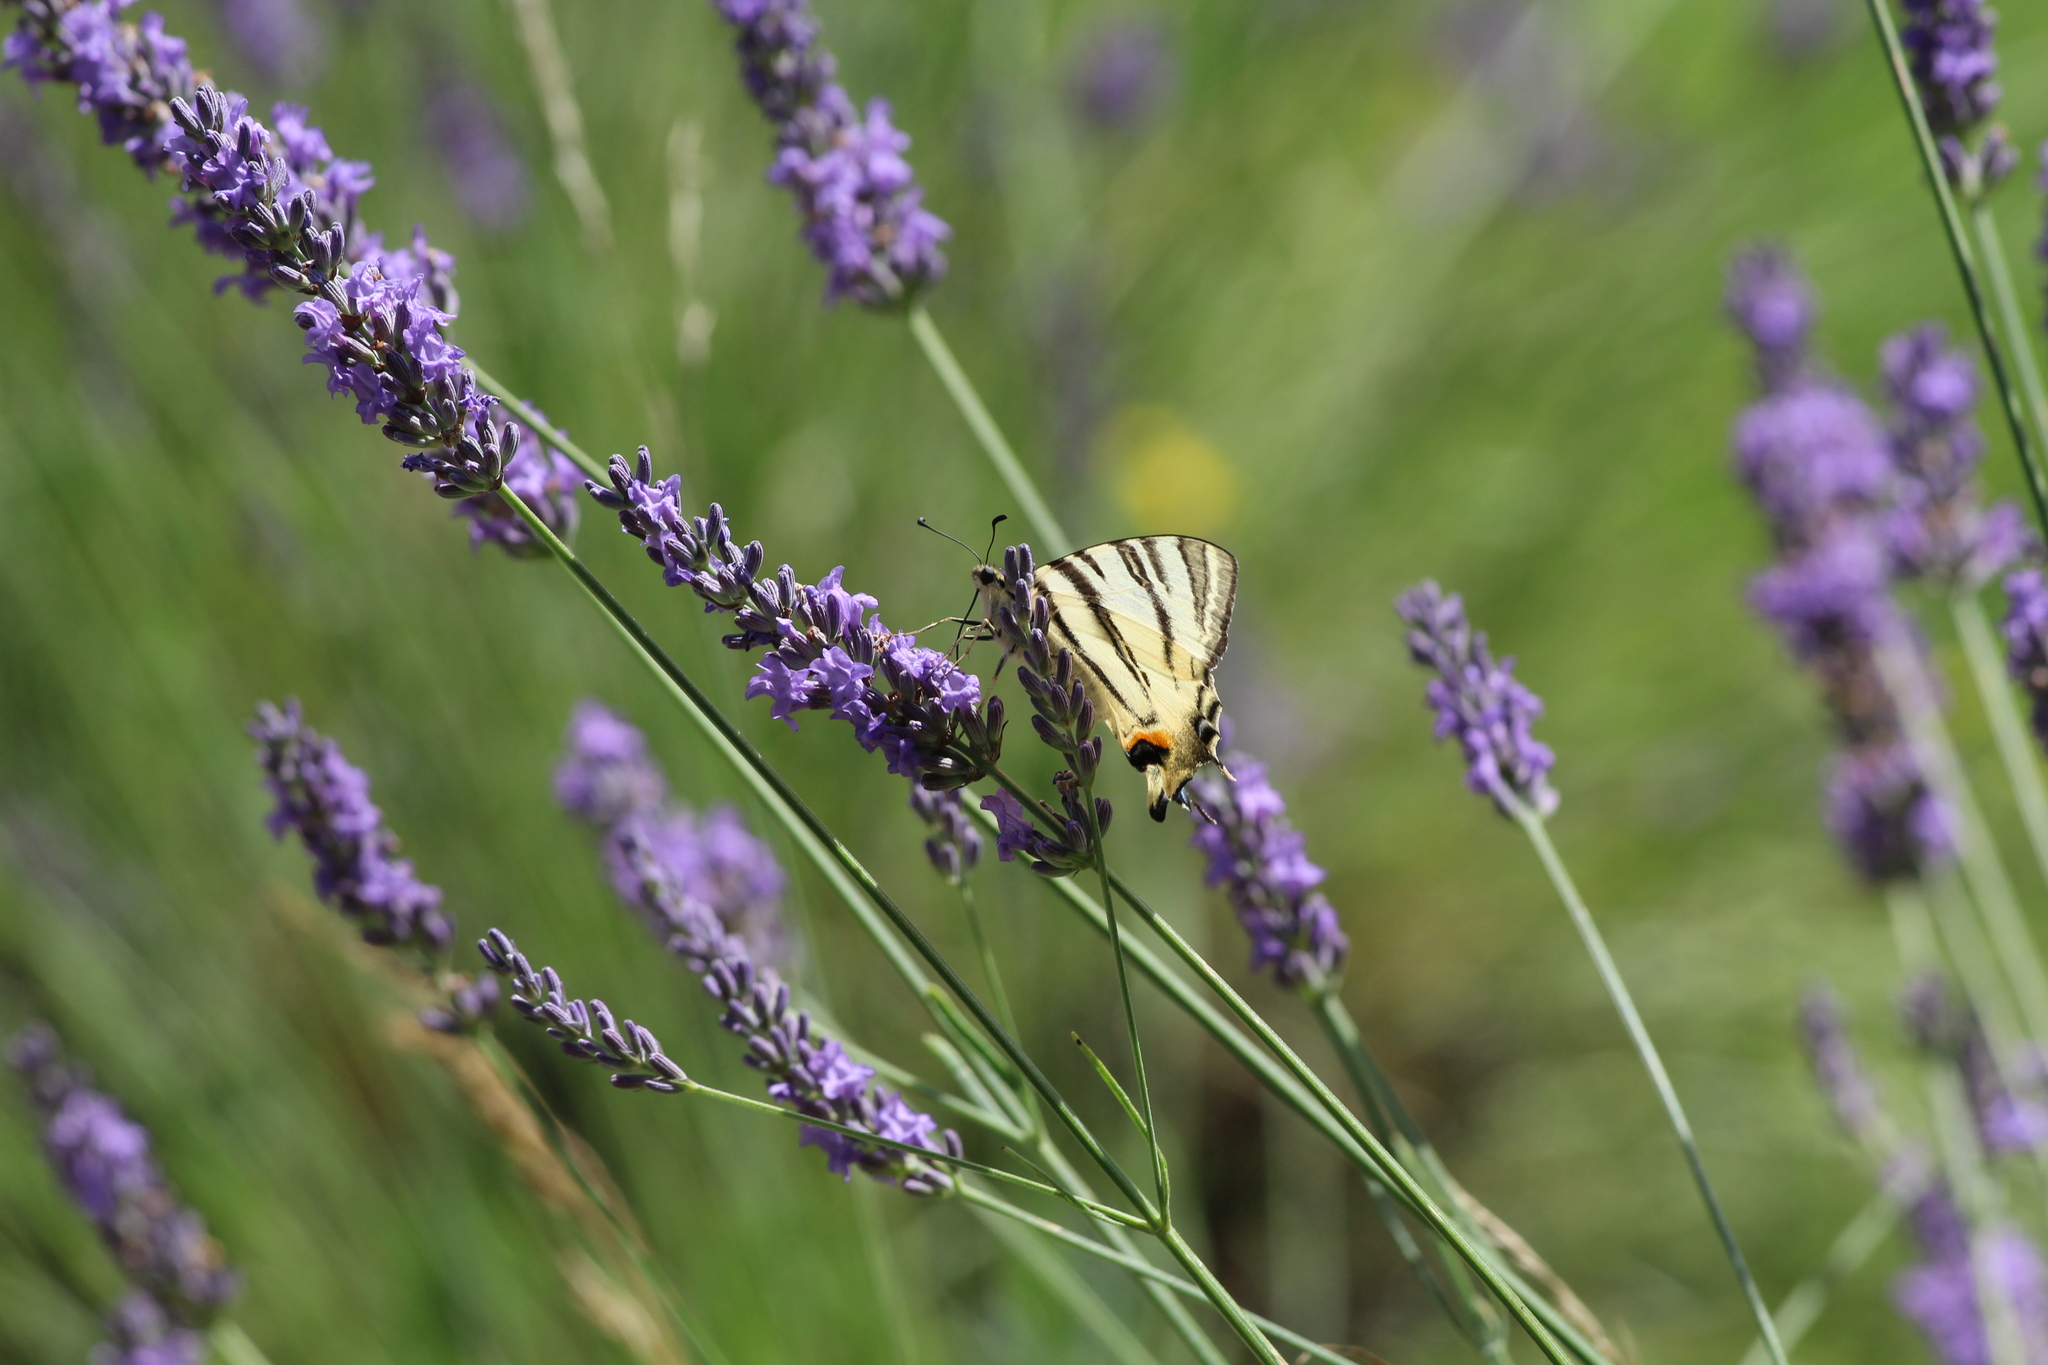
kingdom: Animalia
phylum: Arthropoda
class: Insecta
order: Lepidoptera
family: Papilionidae
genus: Iphiclides
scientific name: Iphiclides podalirius
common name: Scarce swallowtail
